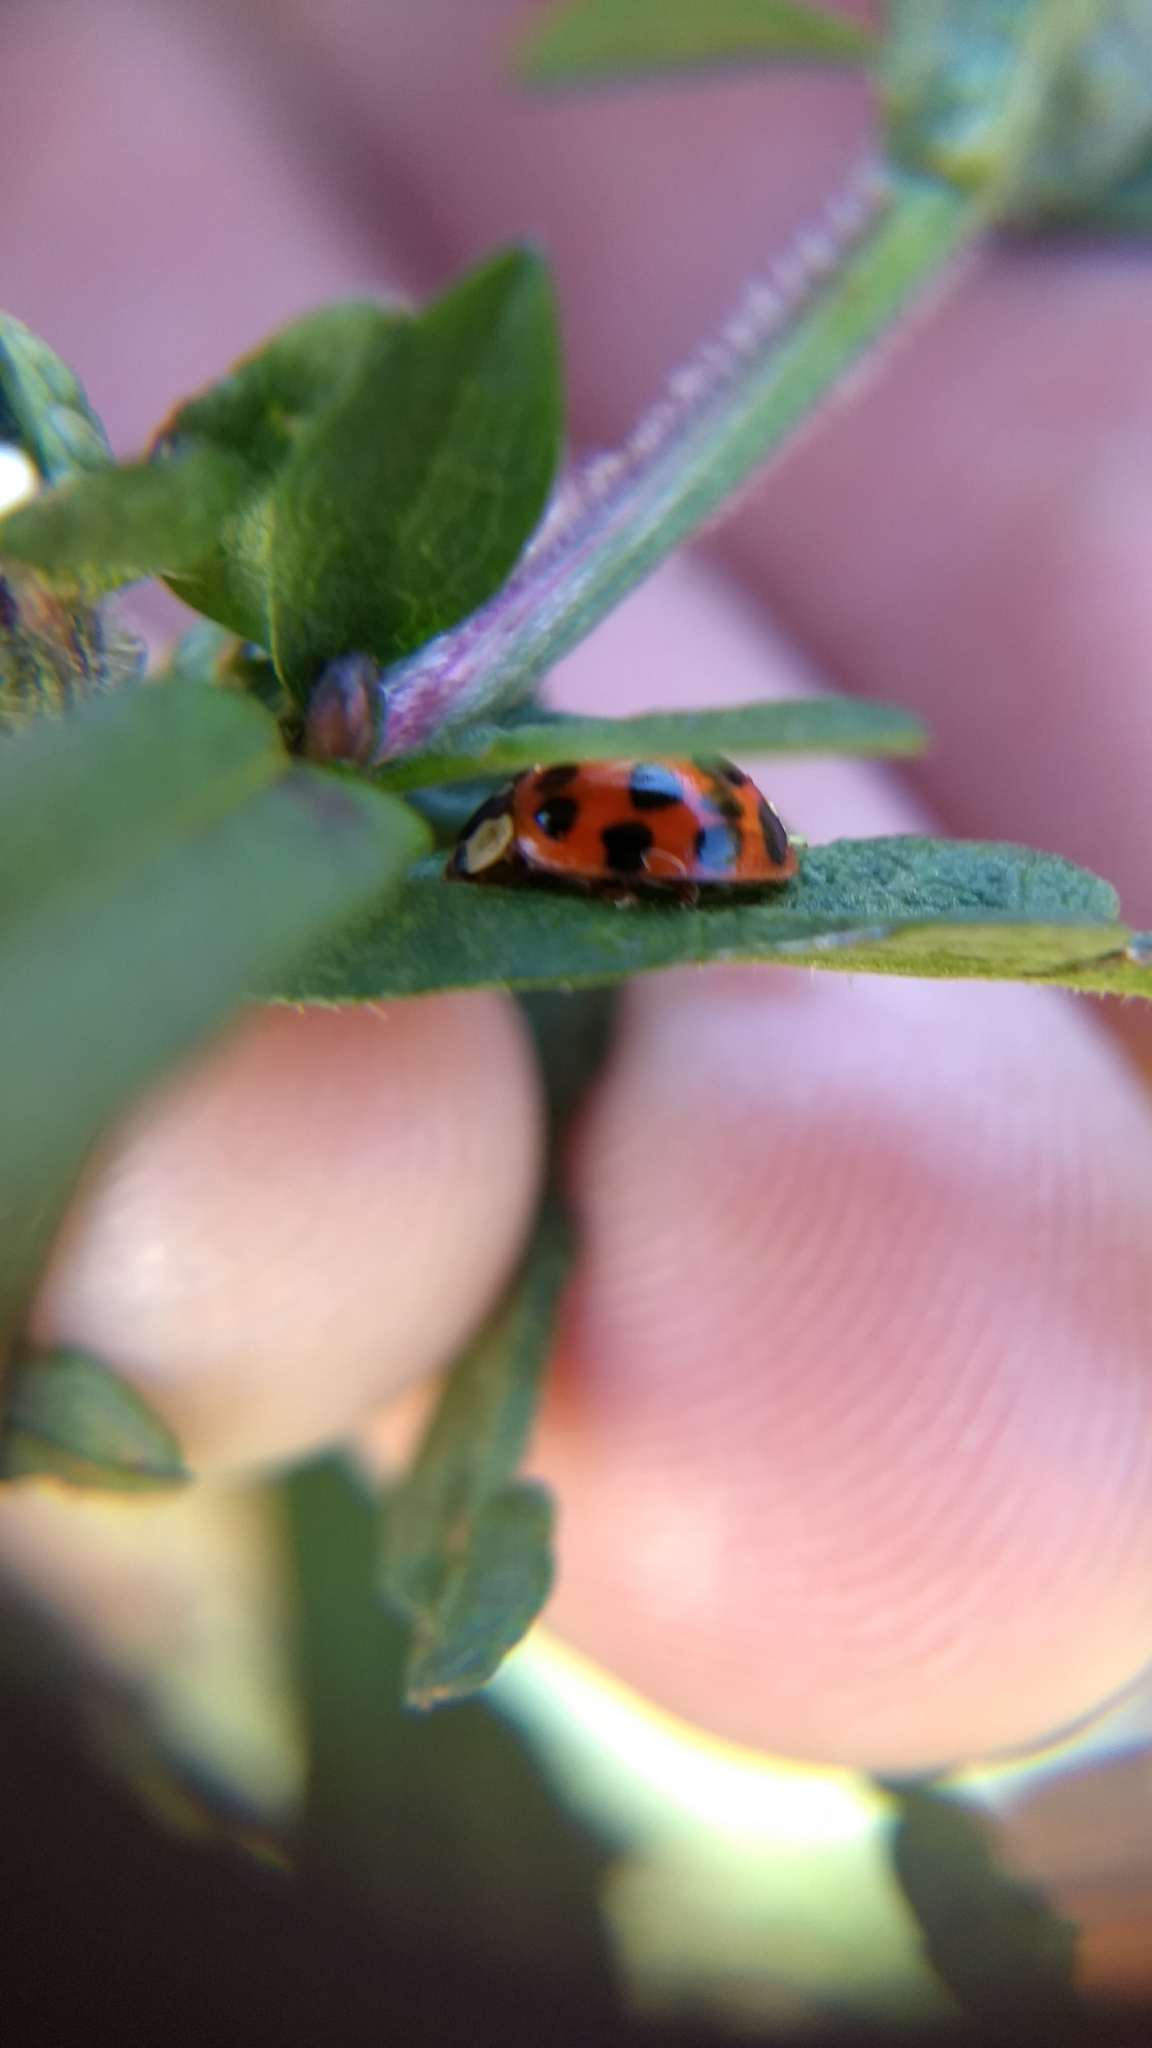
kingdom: Animalia
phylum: Arthropoda
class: Insecta
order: Coleoptera
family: Coccinellidae
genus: Harmonia
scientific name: Harmonia axyridis
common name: Harlequin ladybird
